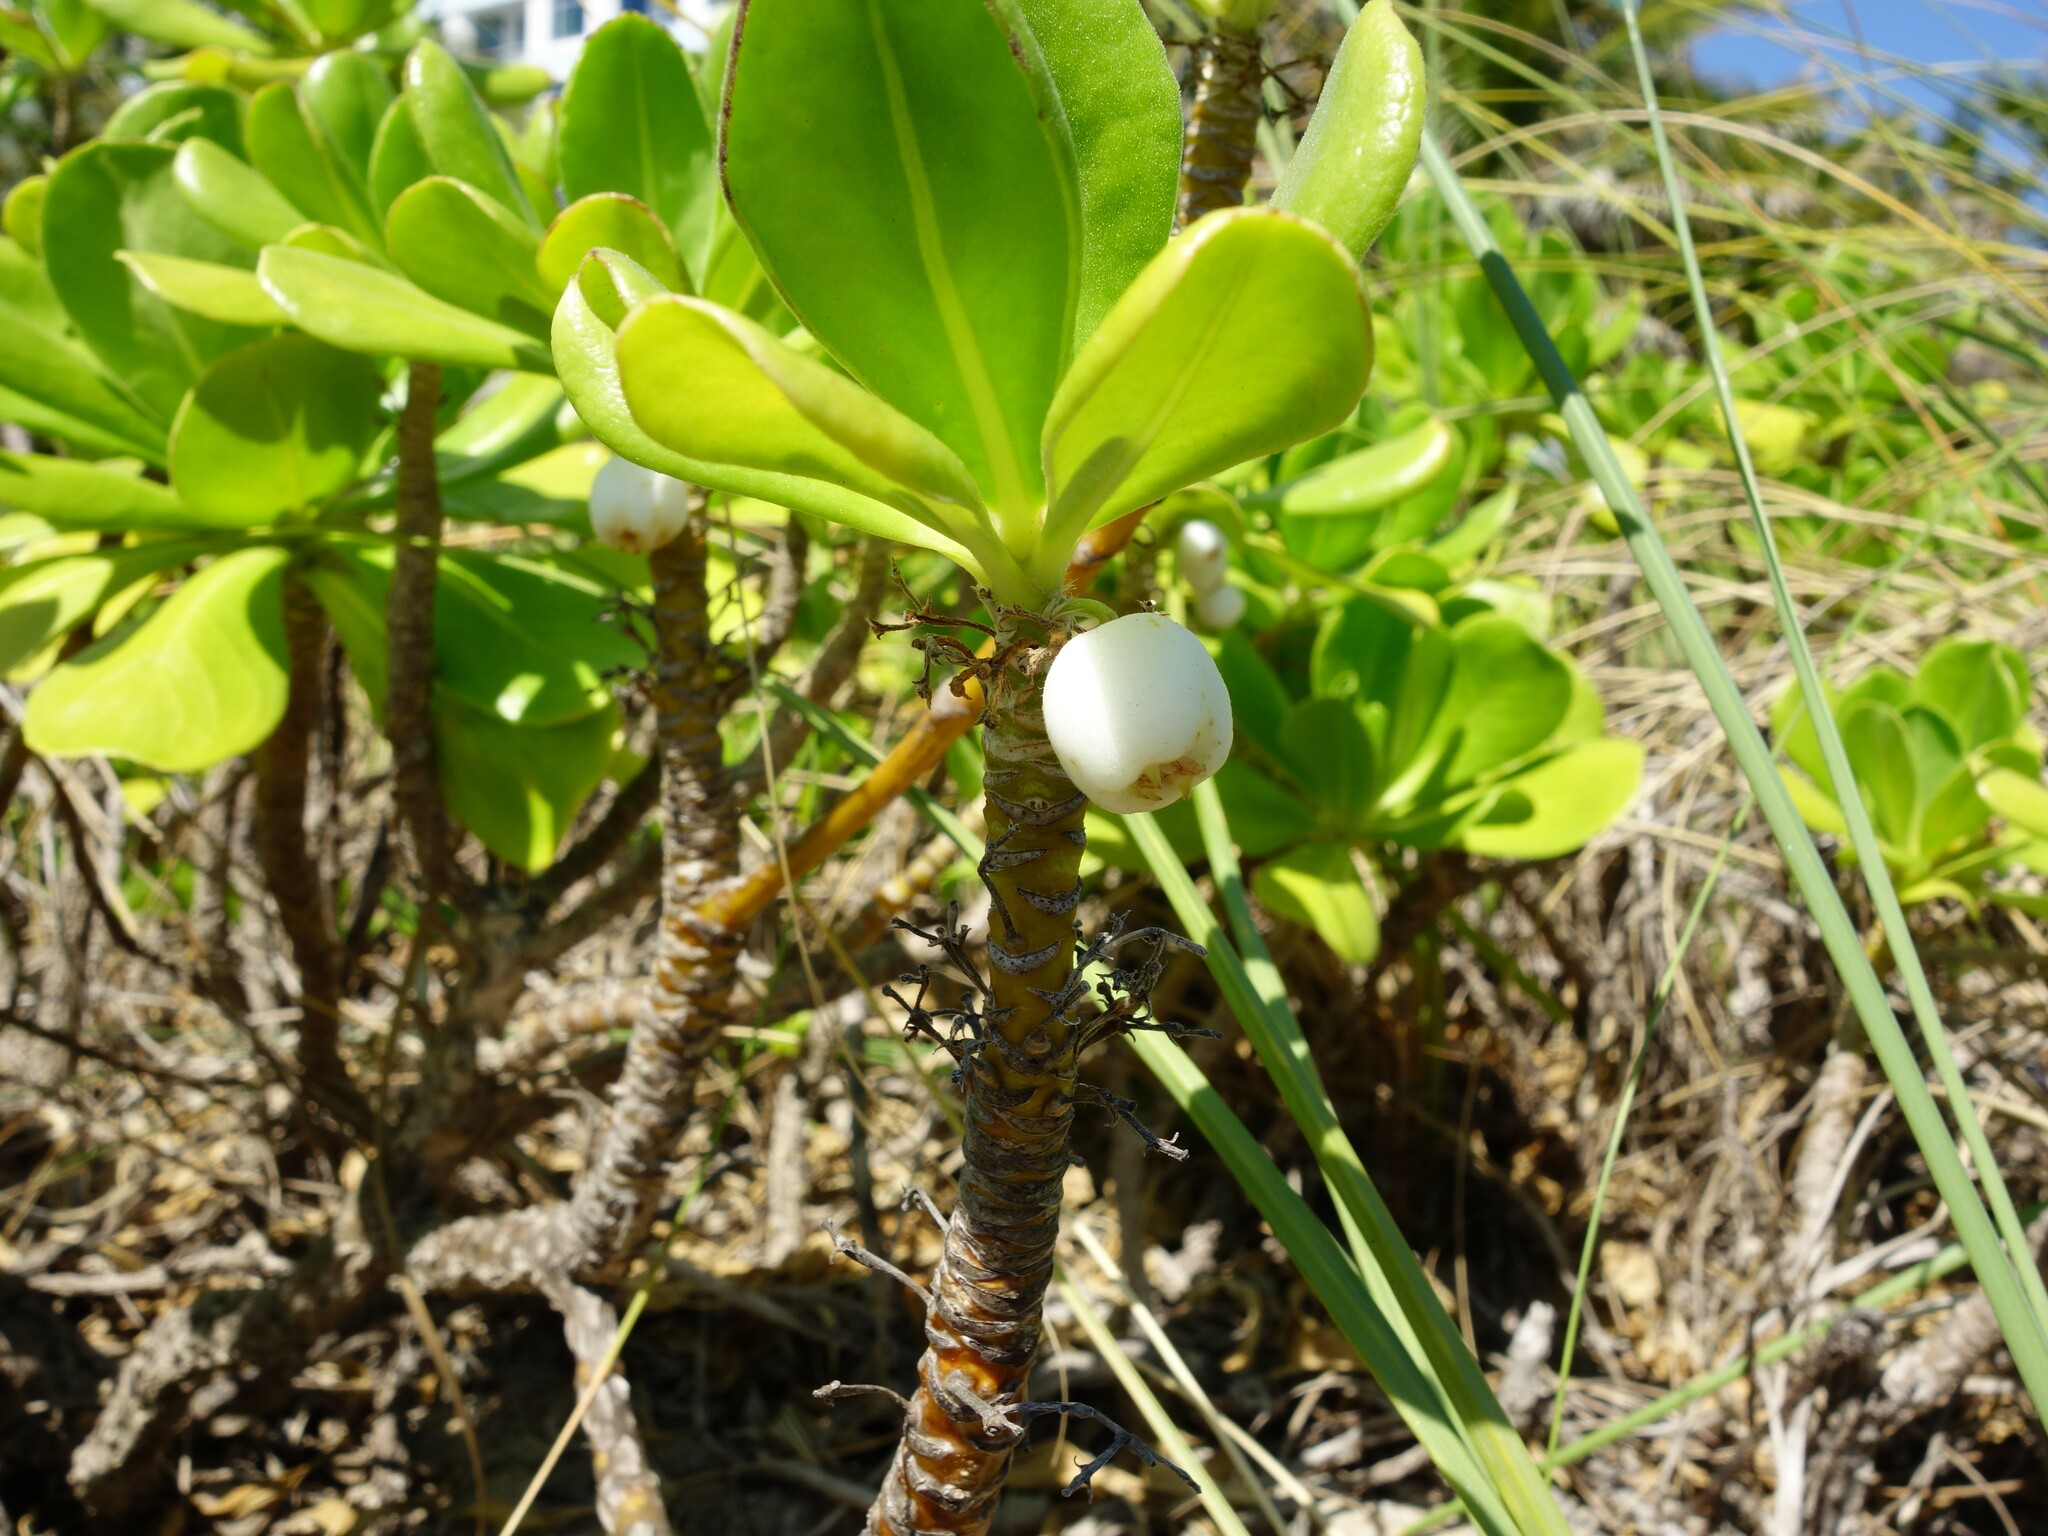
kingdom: Plantae
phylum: Tracheophyta
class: Magnoliopsida
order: Asterales
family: Goodeniaceae
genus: Scaevola
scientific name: Scaevola taccada
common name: Sea lettucetree
